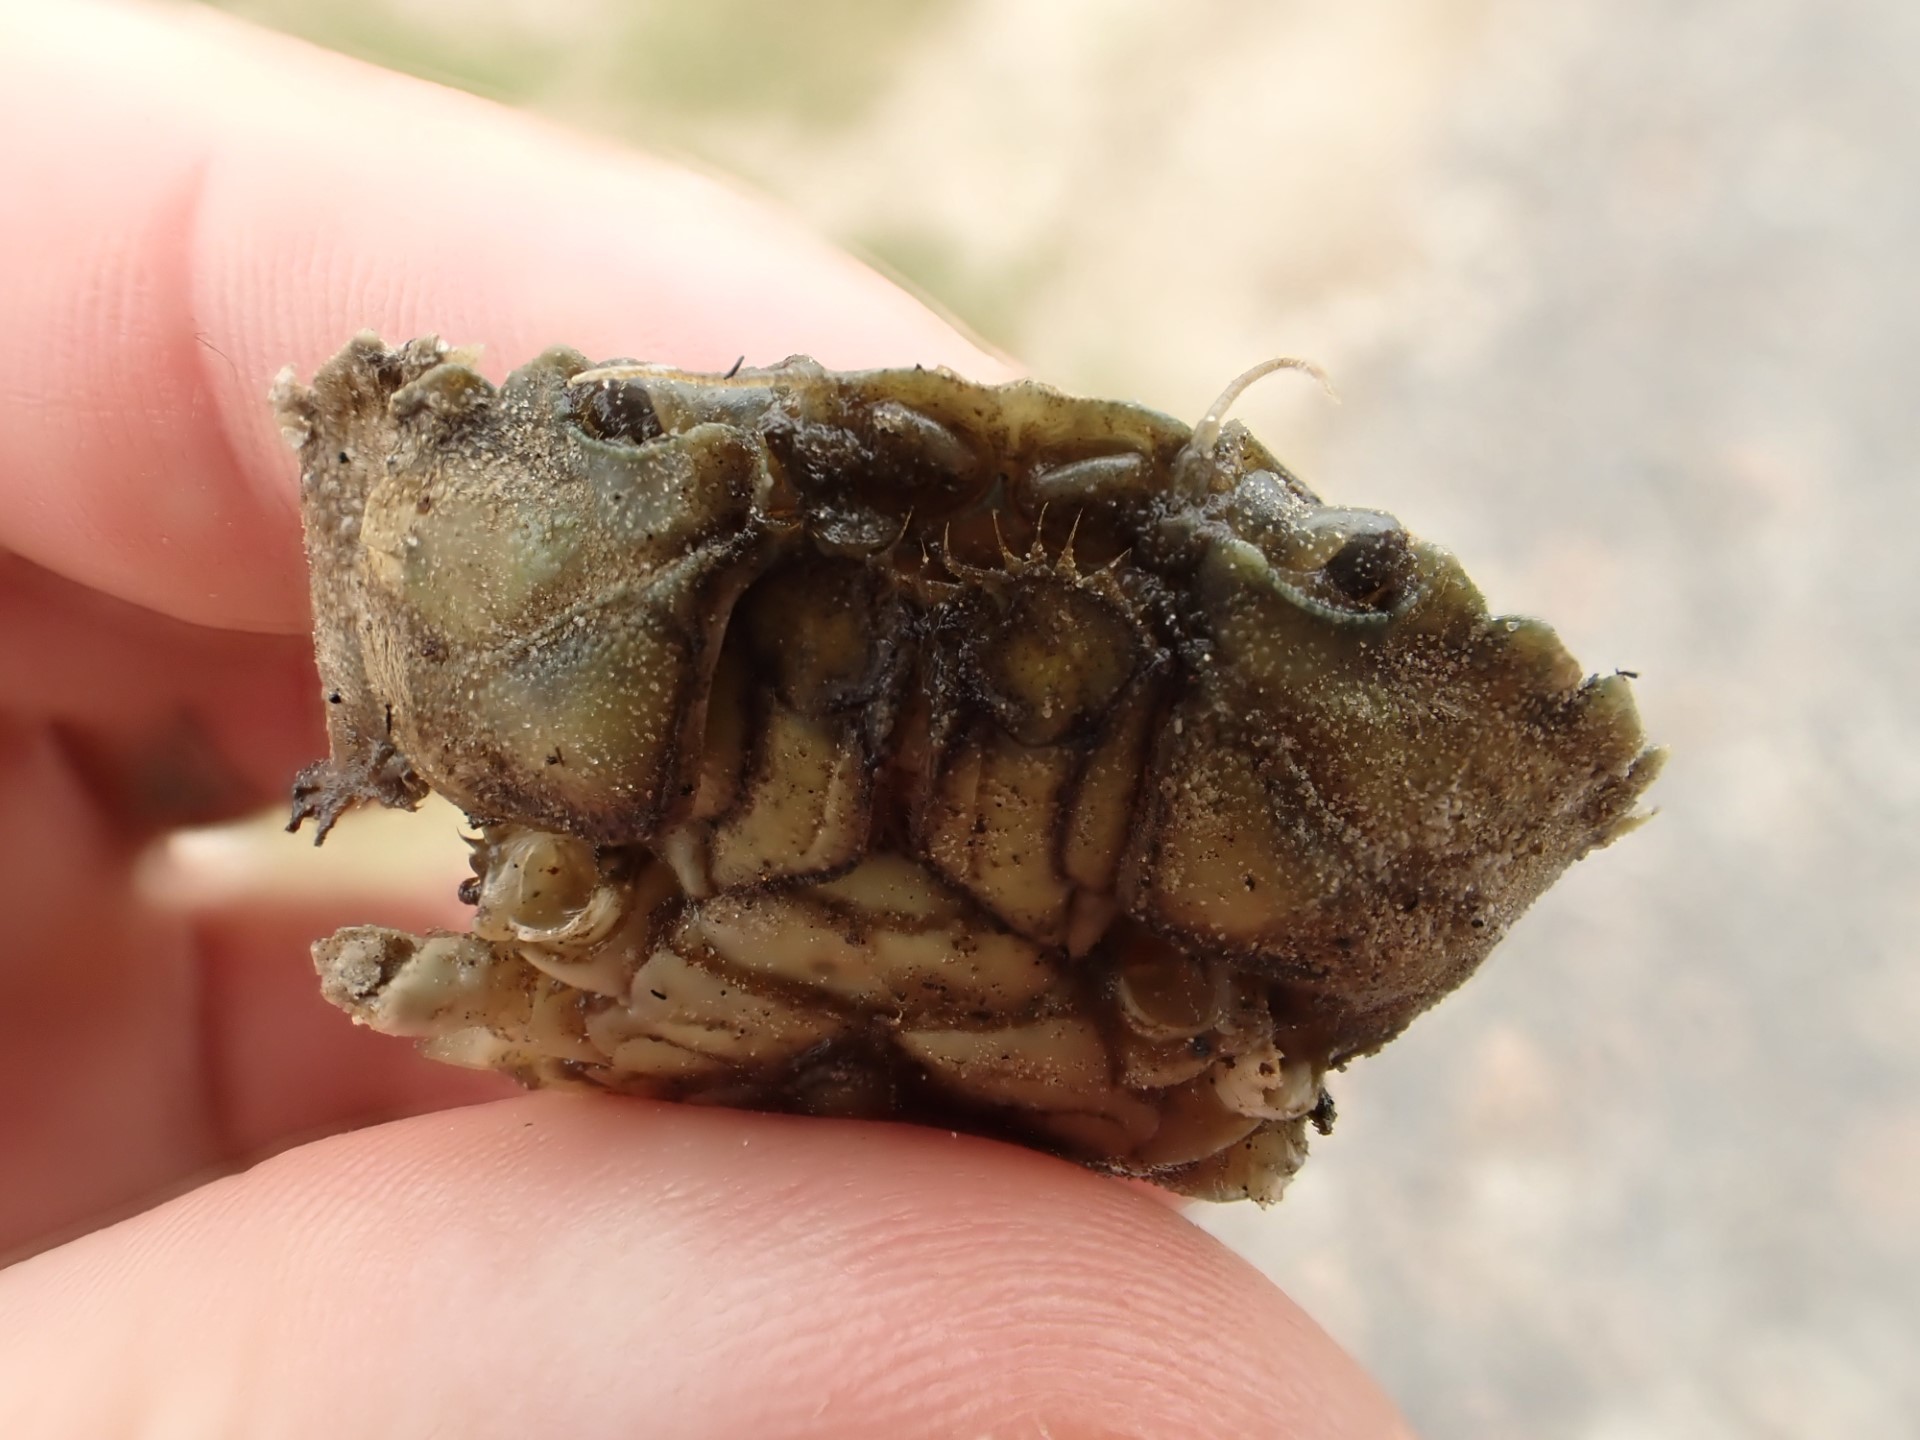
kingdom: Animalia
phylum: Arthropoda
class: Malacostraca
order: Decapoda
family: Carcinidae
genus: Carcinus
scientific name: Carcinus maenas
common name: European green crab
